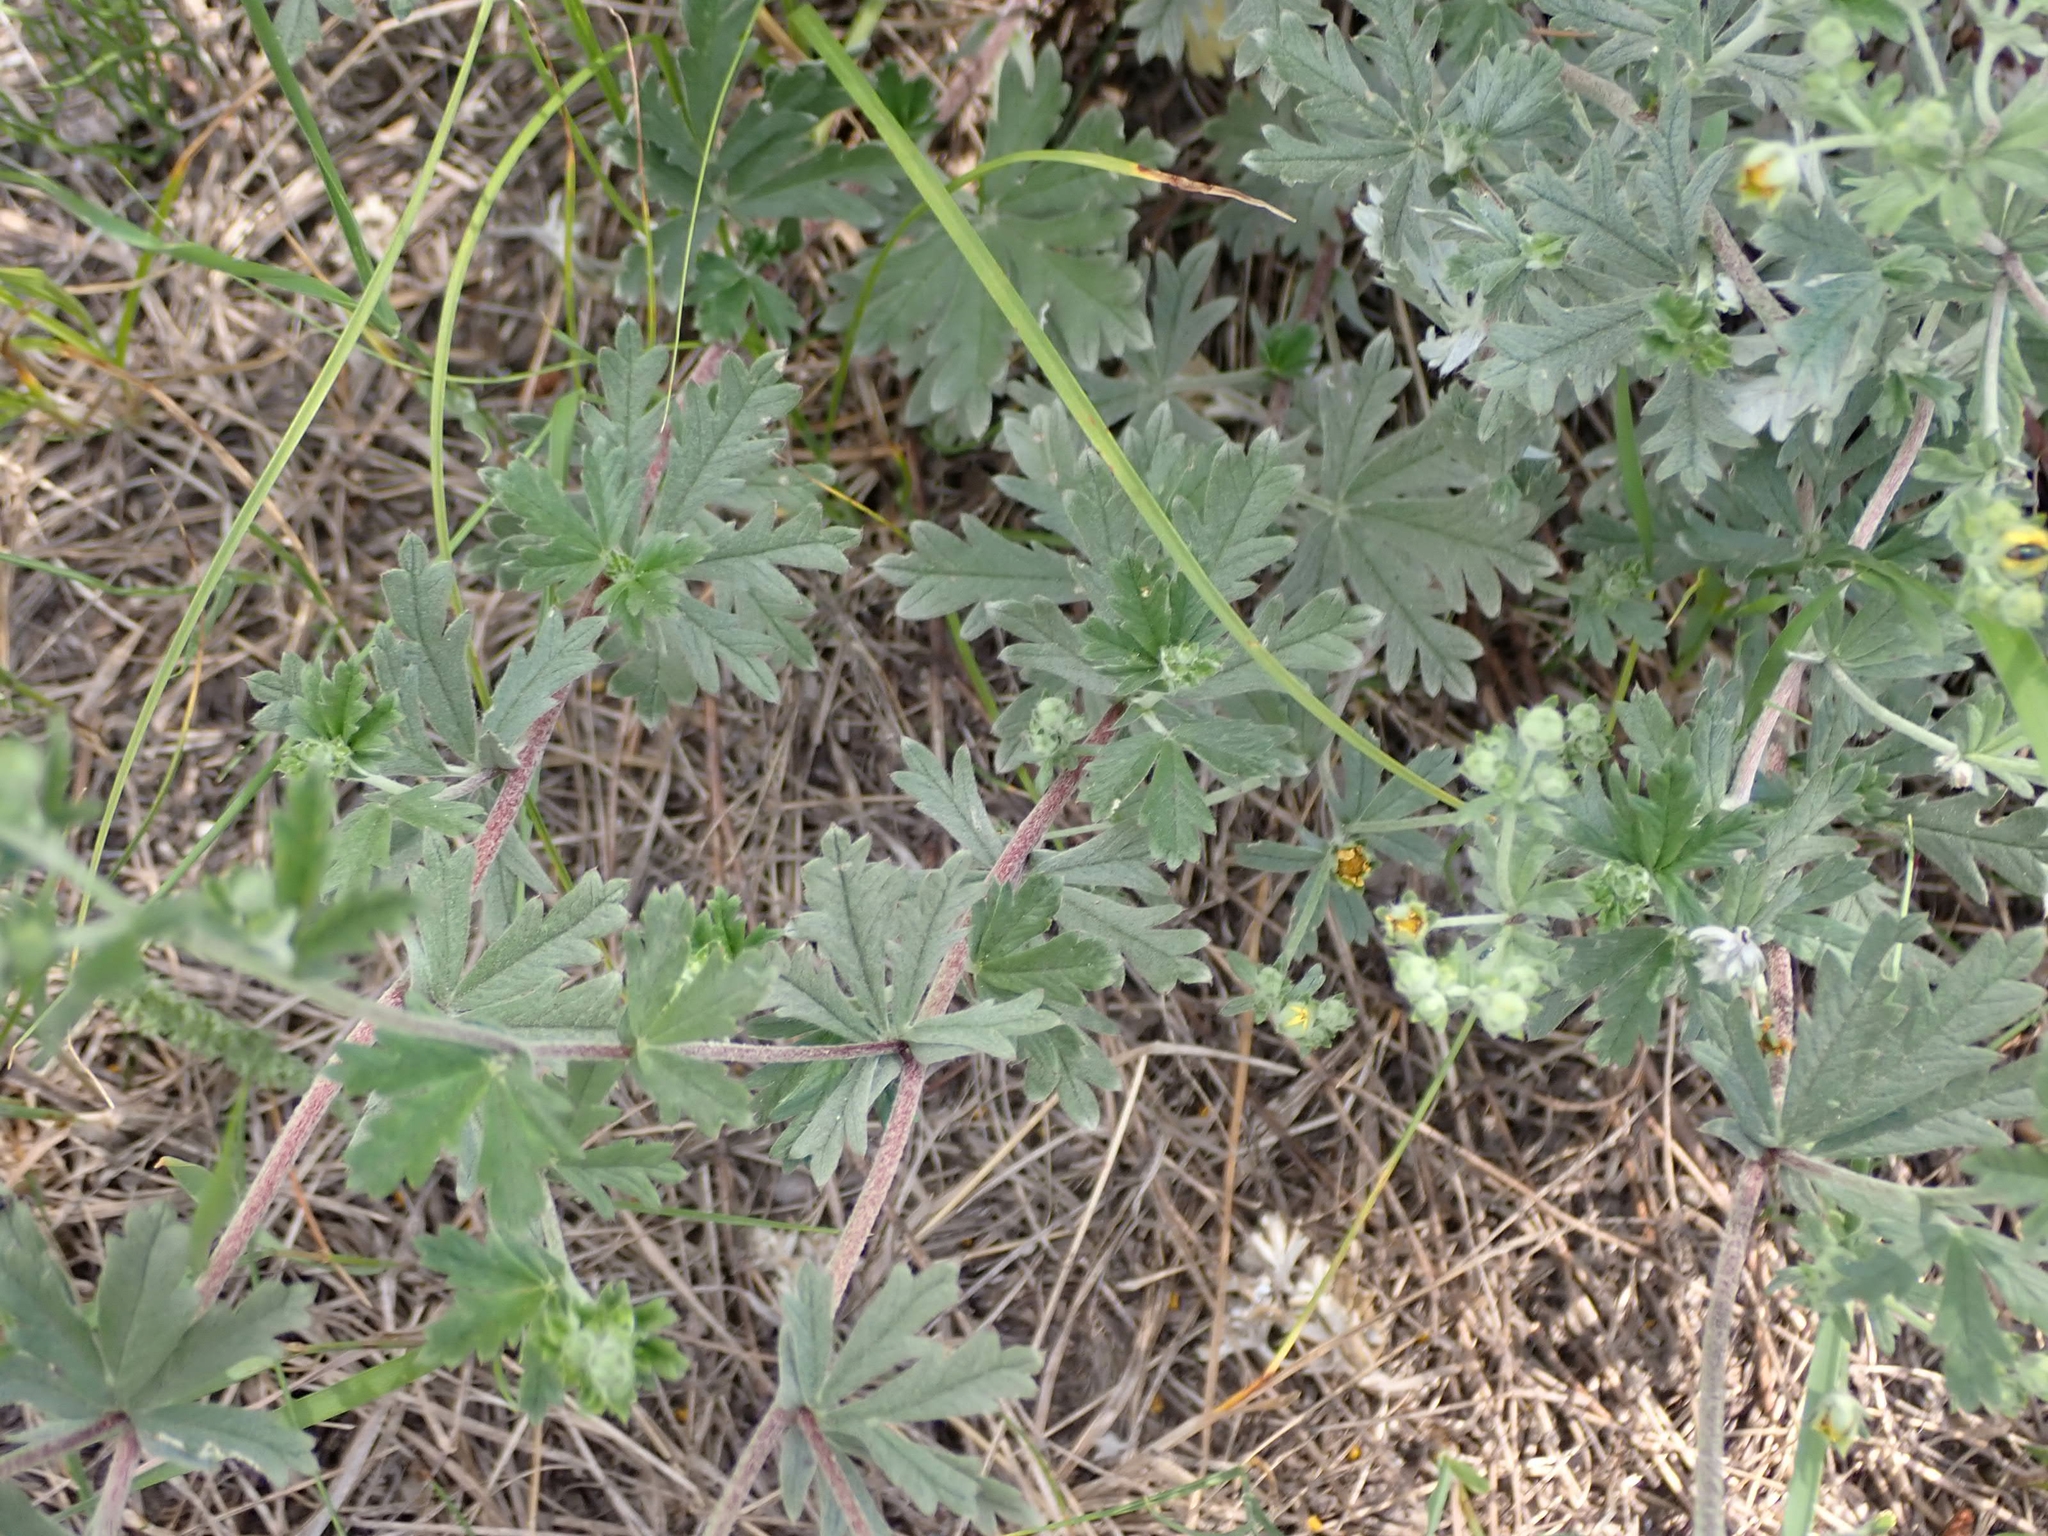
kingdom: Plantae
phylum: Tracheophyta
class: Magnoliopsida
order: Rosales
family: Rosaceae
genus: Potentilla
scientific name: Potentilla argentea
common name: Hoary cinquefoil
